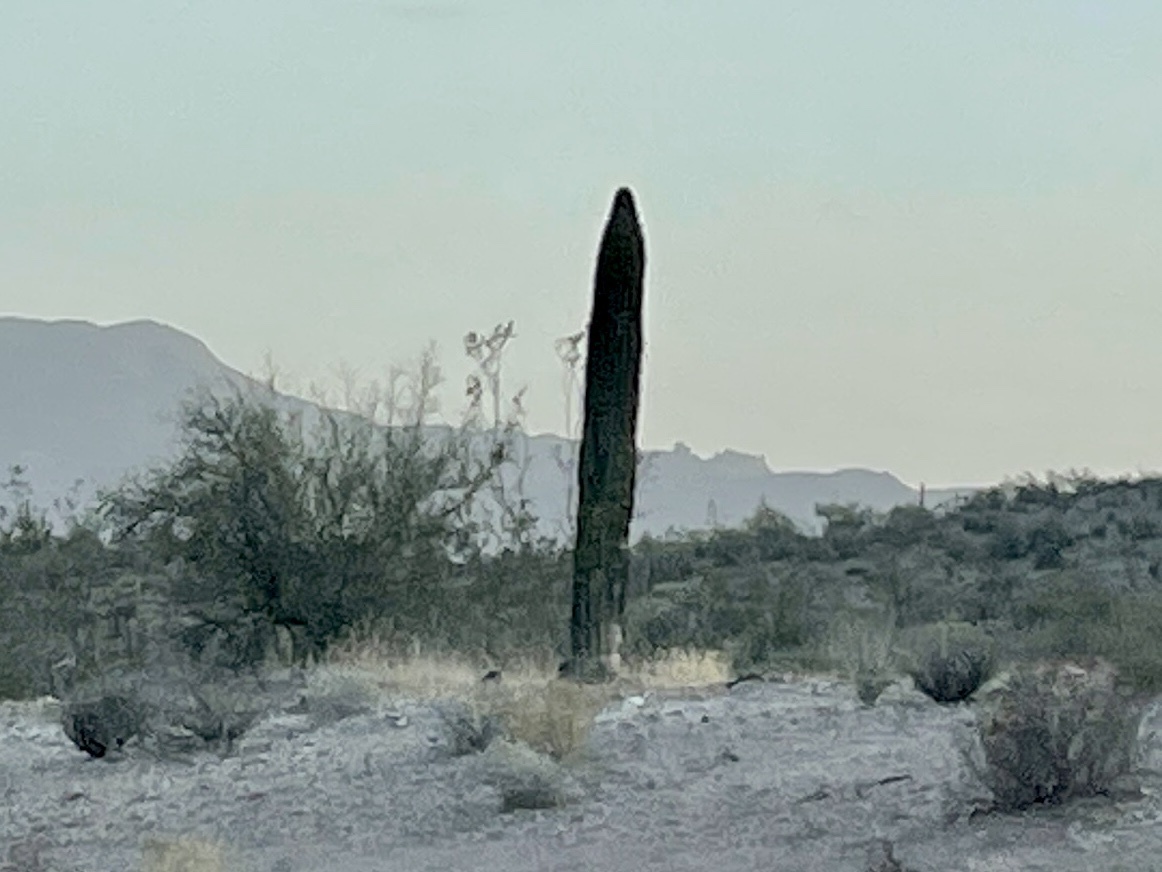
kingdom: Plantae
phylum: Tracheophyta
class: Magnoliopsida
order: Caryophyllales
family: Cactaceae
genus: Carnegiea
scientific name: Carnegiea gigantea
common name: Saguaro
